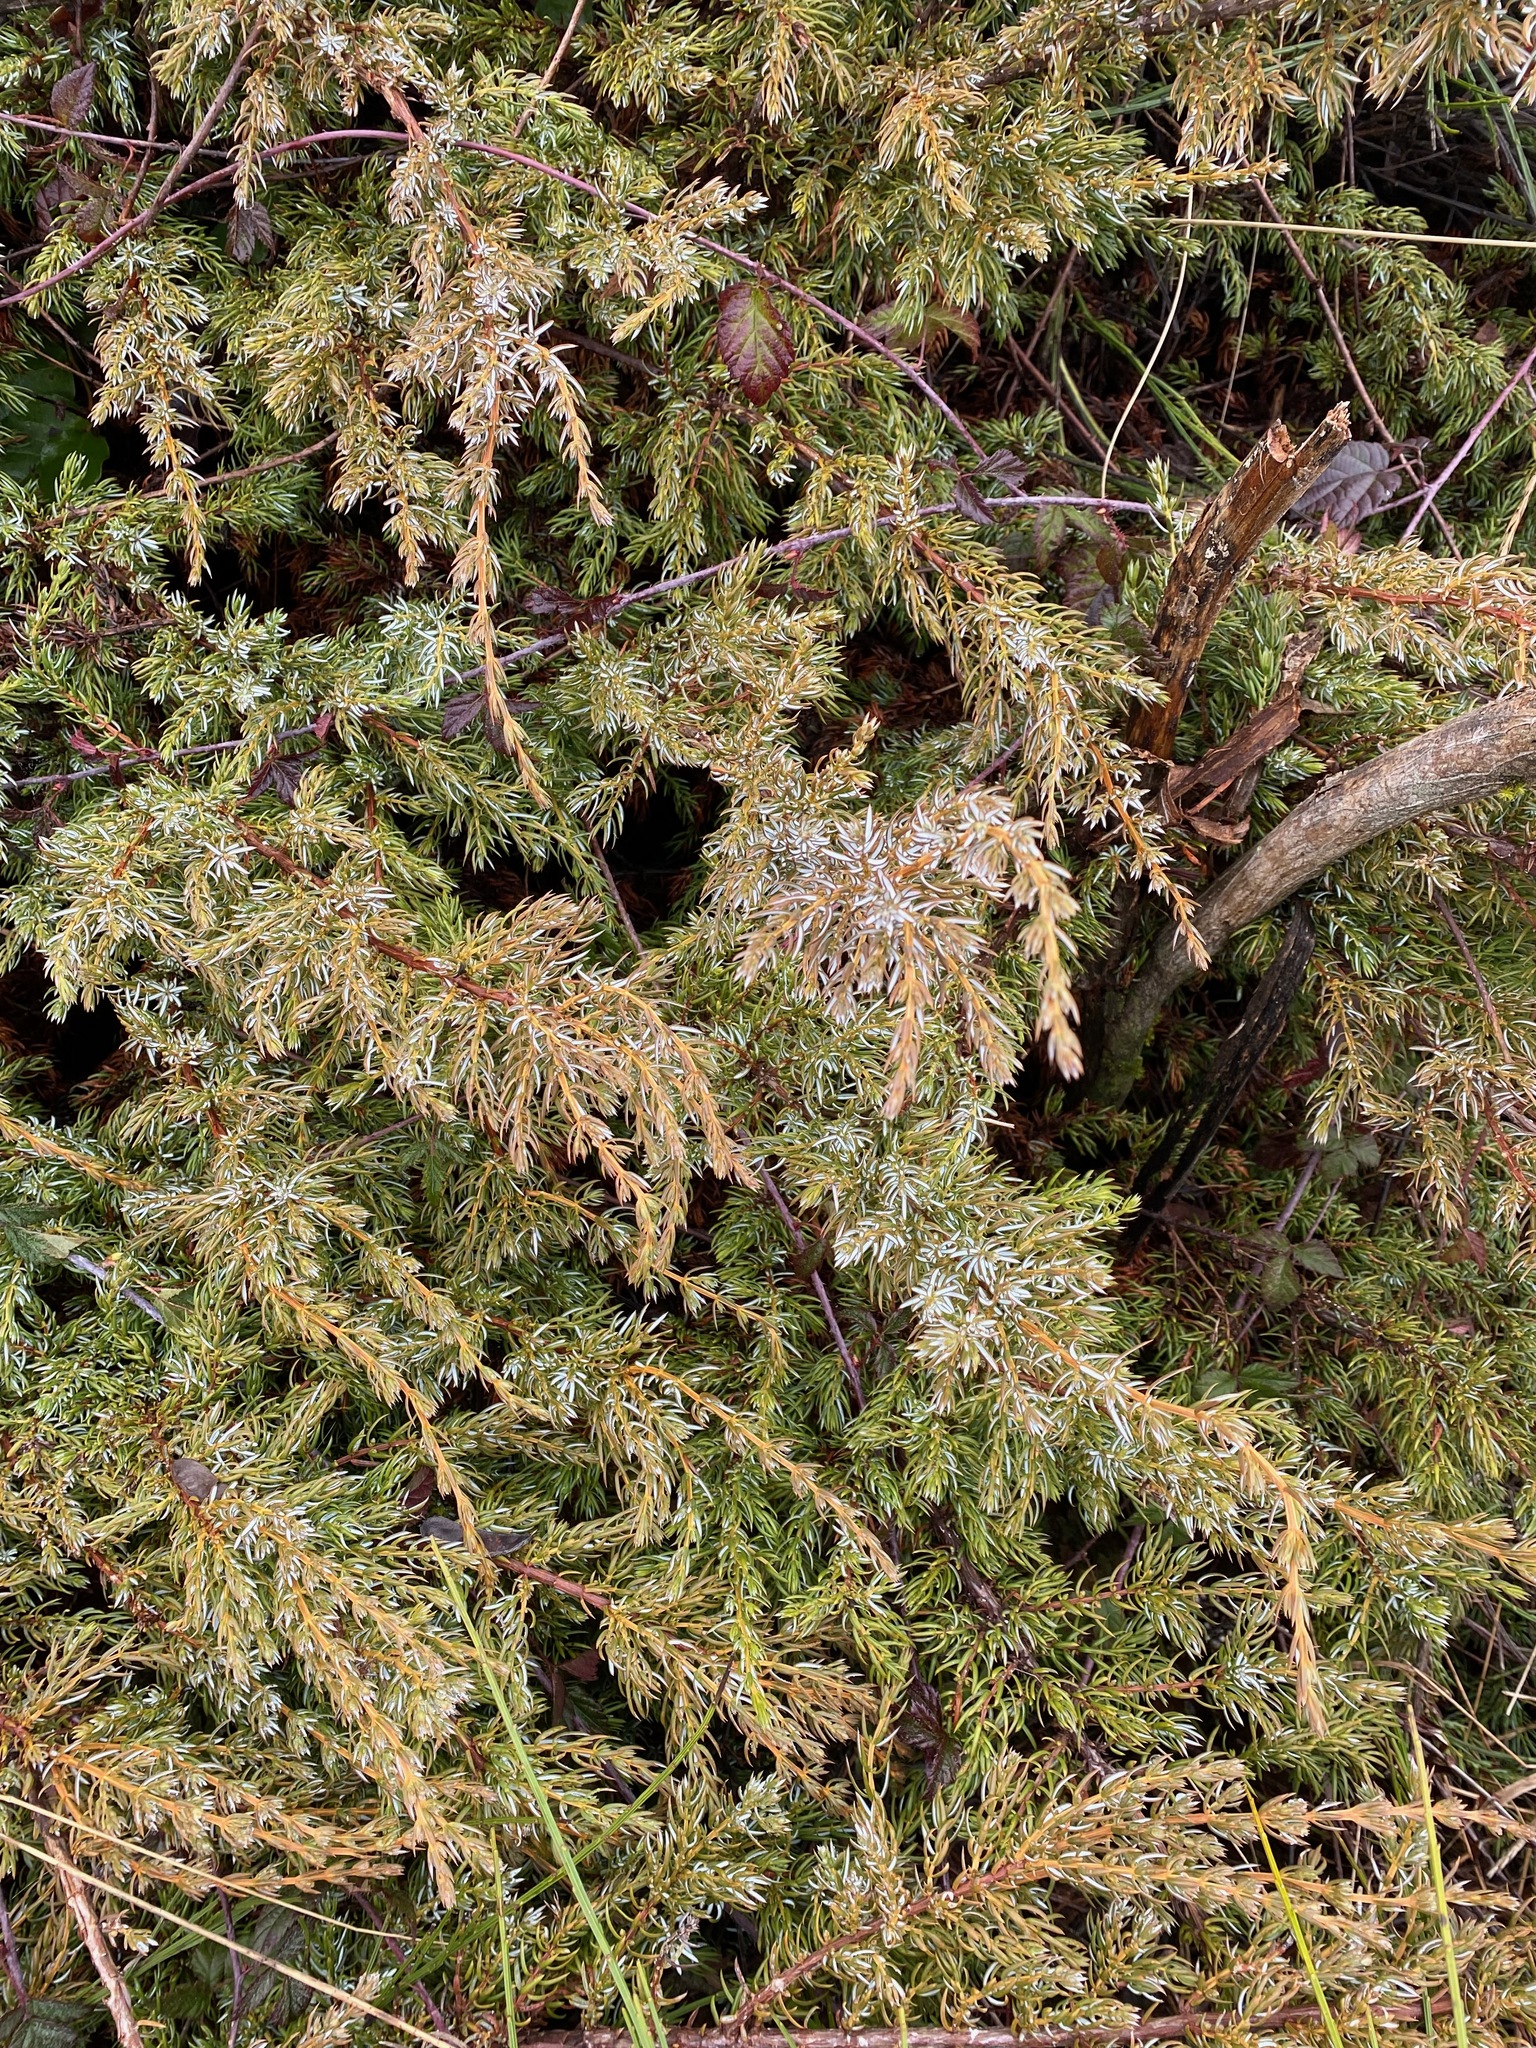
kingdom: Plantae
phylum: Tracheophyta
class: Pinopsida
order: Pinales
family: Cupressaceae
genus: Juniperus
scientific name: Juniperus communis
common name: Common juniper
